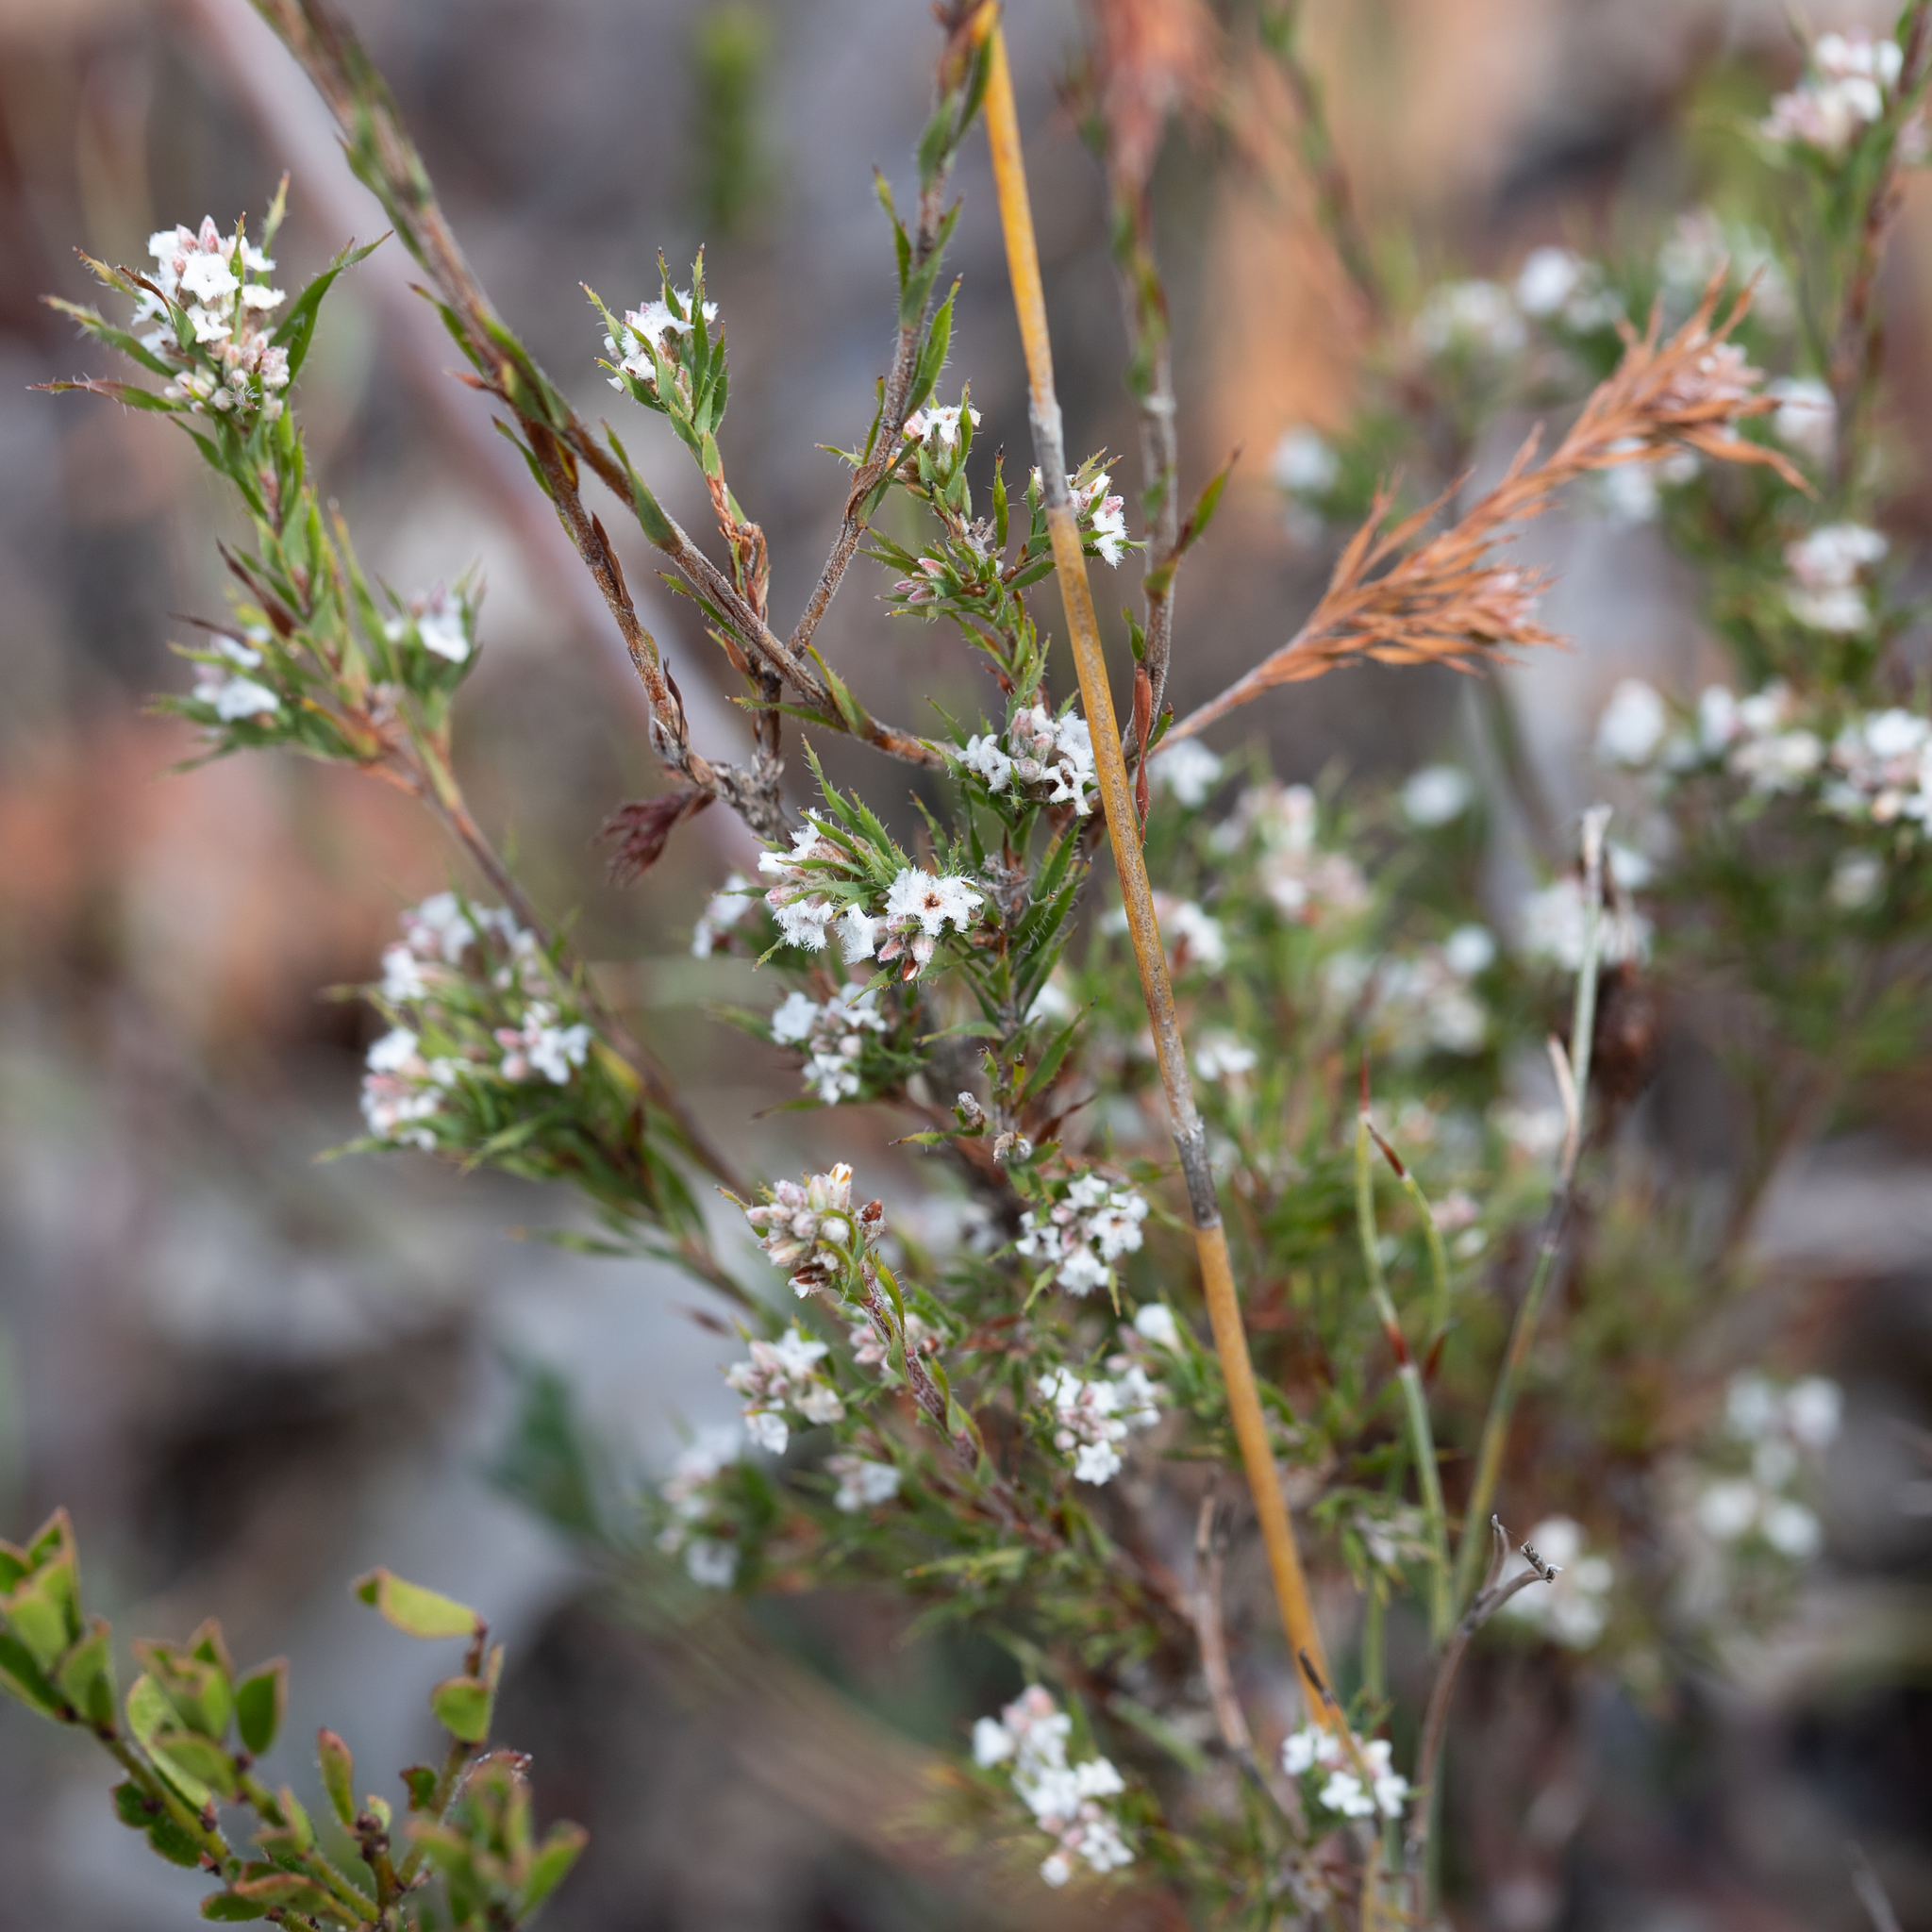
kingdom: Plantae
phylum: Tracheophyta
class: Magnoliopsida
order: Ericales
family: Ericaceae
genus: Leucopogon
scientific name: Leucopogon glacialis
